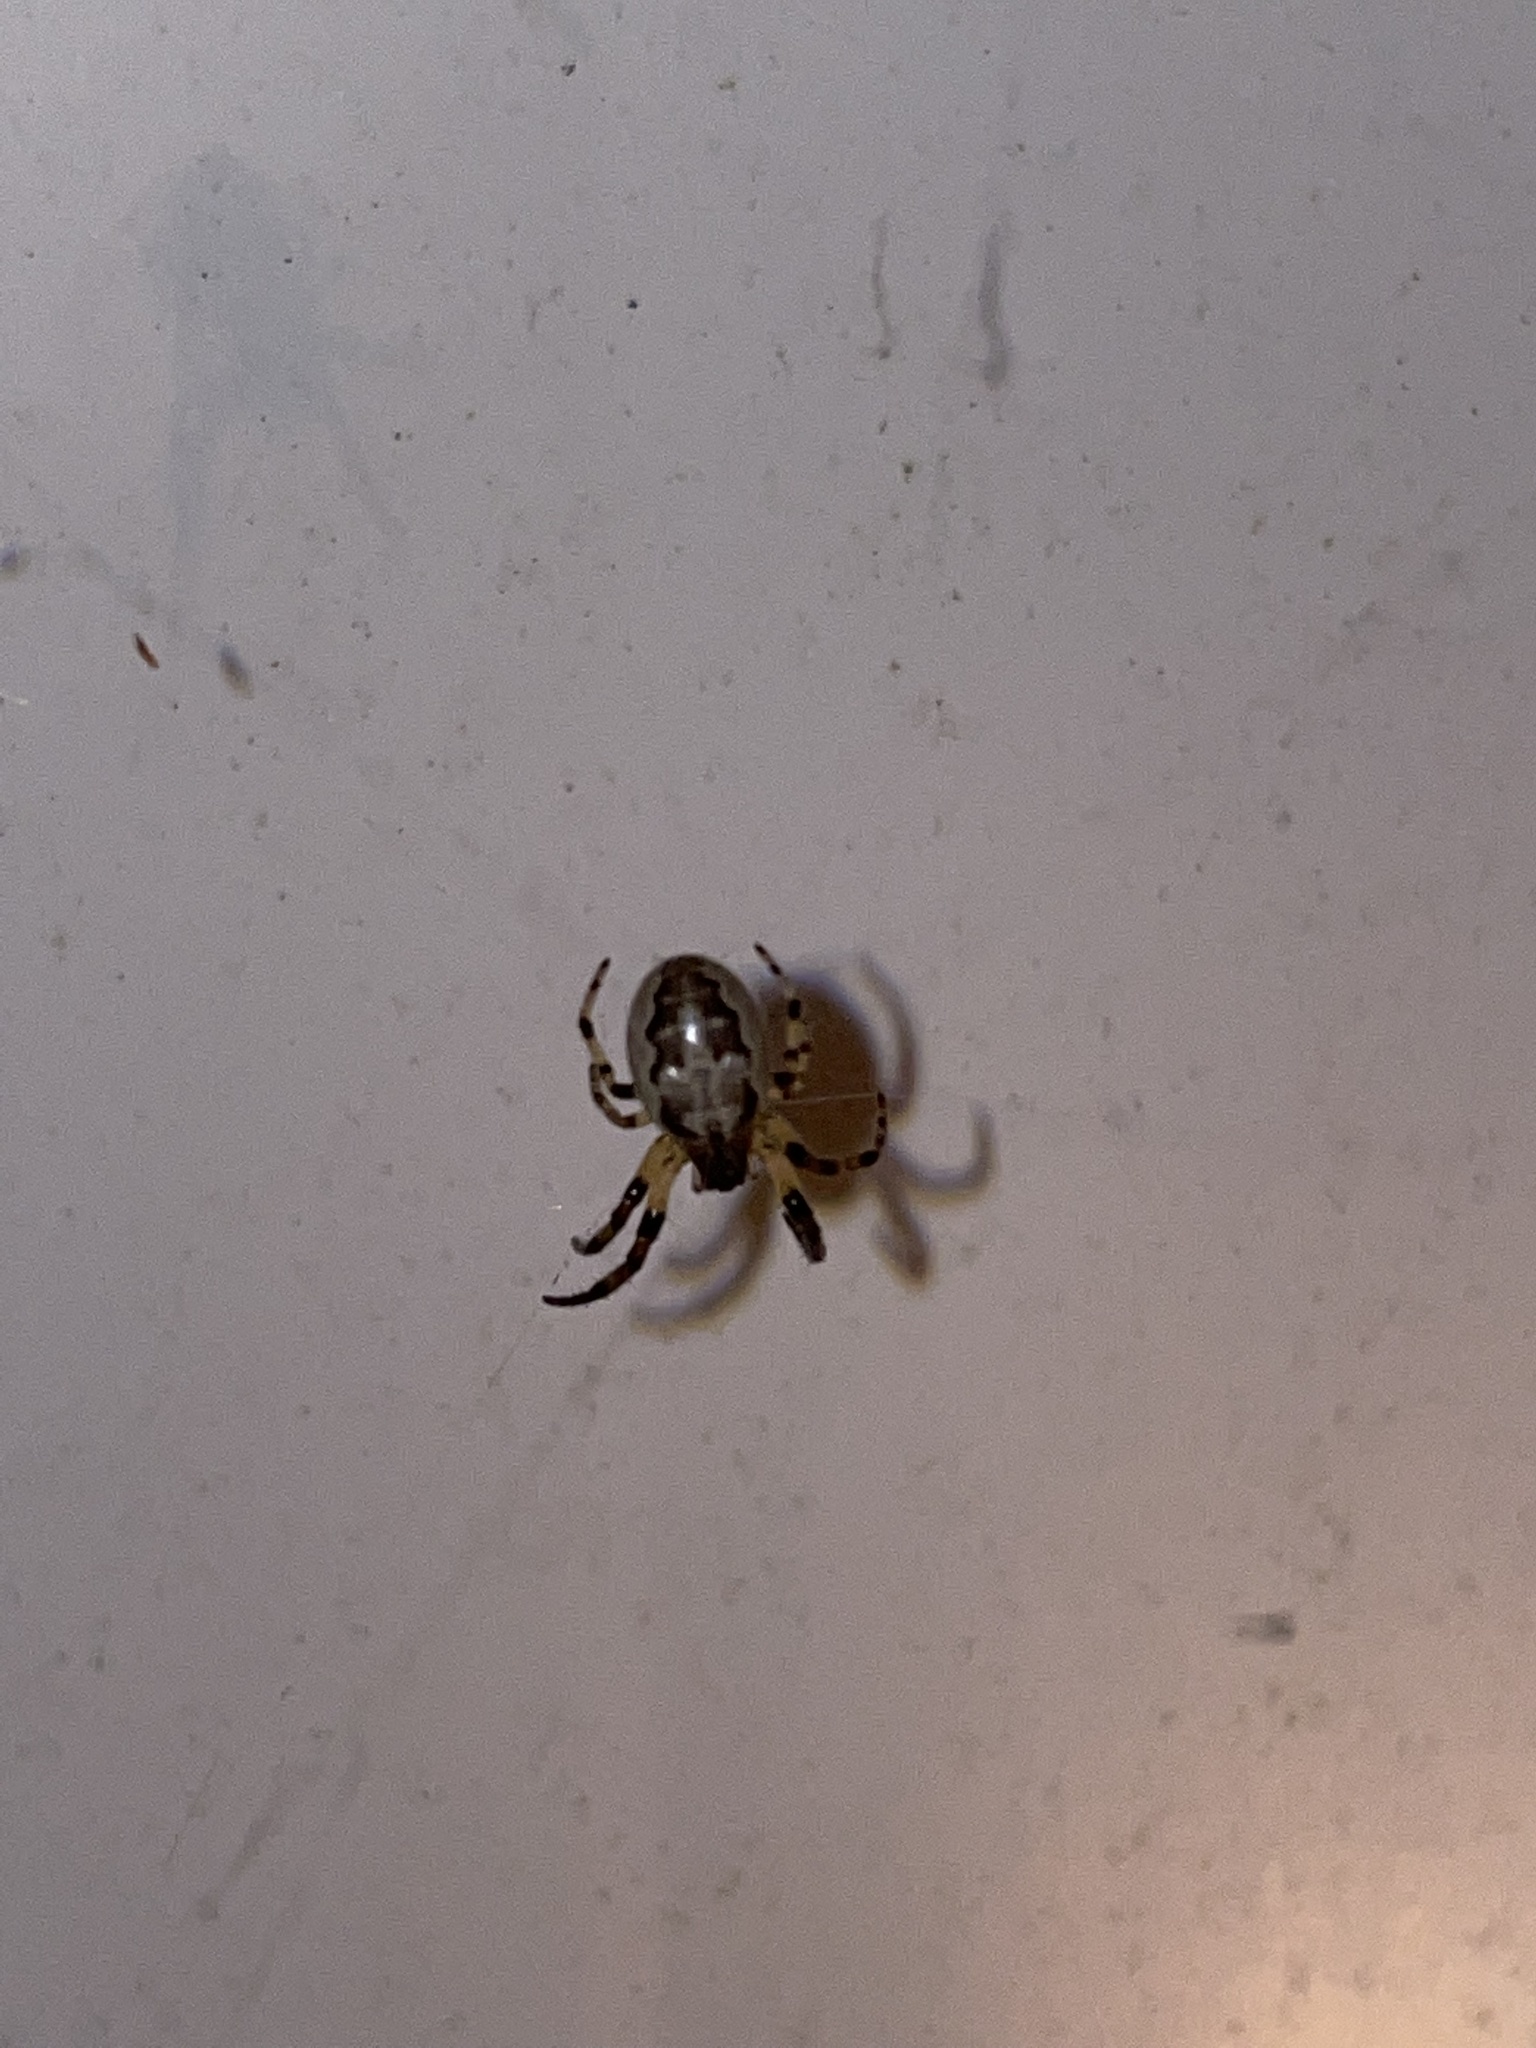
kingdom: Animalia
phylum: Arthropoda
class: Arachnida
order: Araneae
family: Araneidae
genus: Larinioides
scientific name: Larinioides cornutus
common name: Furrow orbweaver
